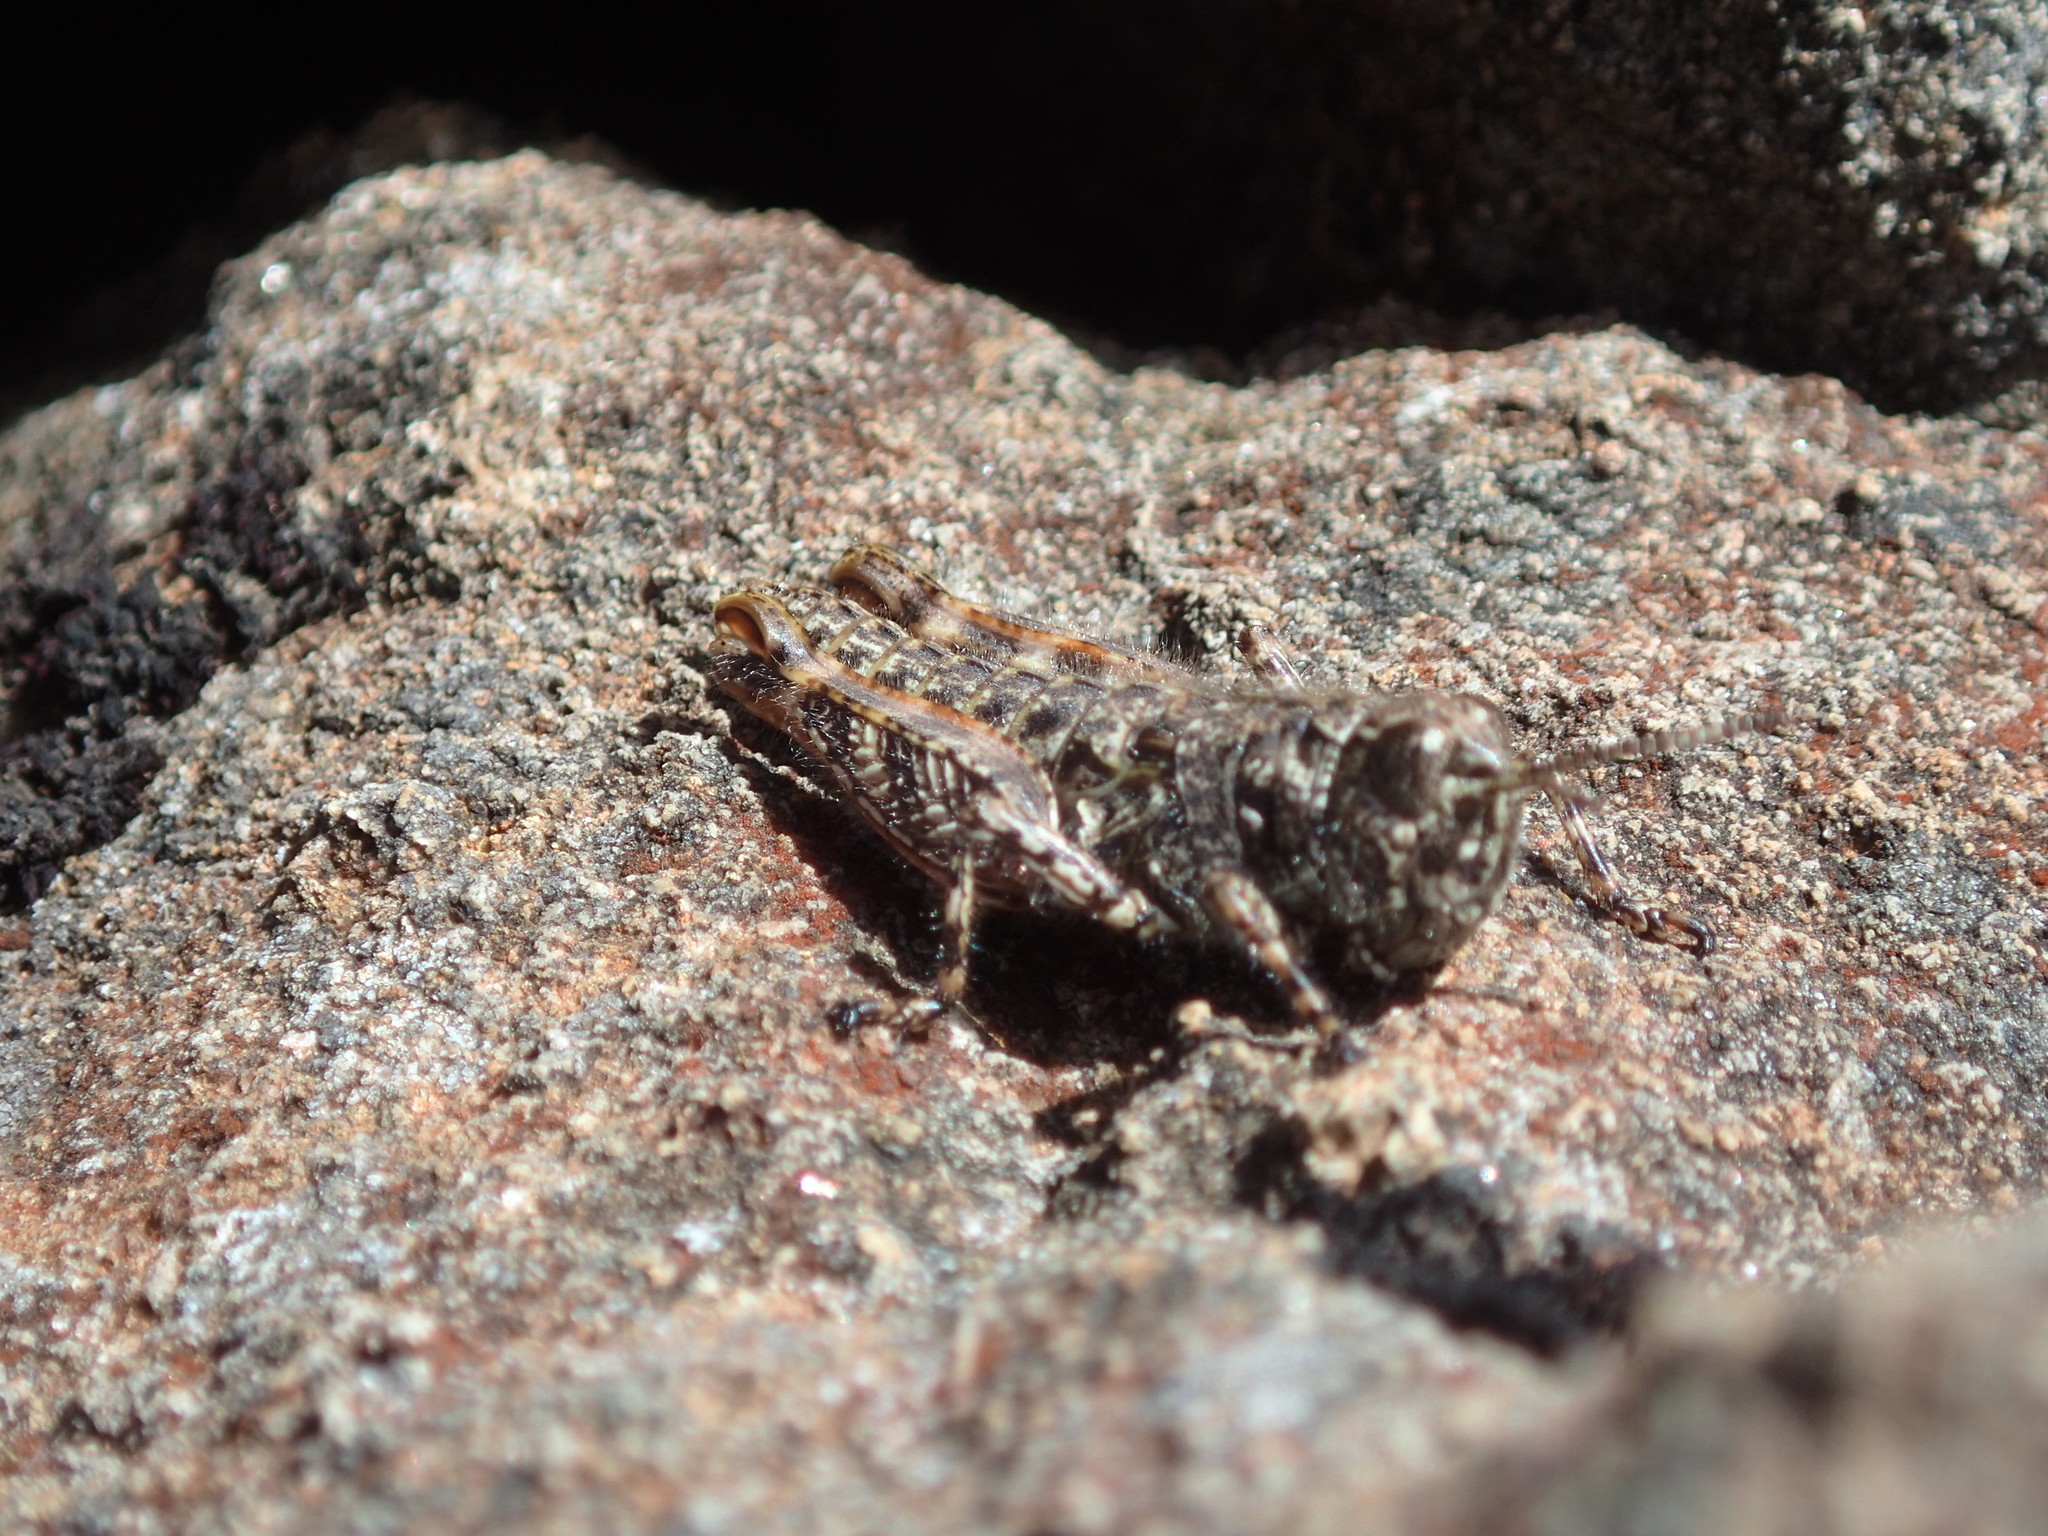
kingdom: Animalia
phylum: Arthropoda
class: Insecta
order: Orthoptera
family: Acrididae
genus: Tasmanalpina
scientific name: Tasmanalpina clavata
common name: Tasmanian velvet grasshopper
